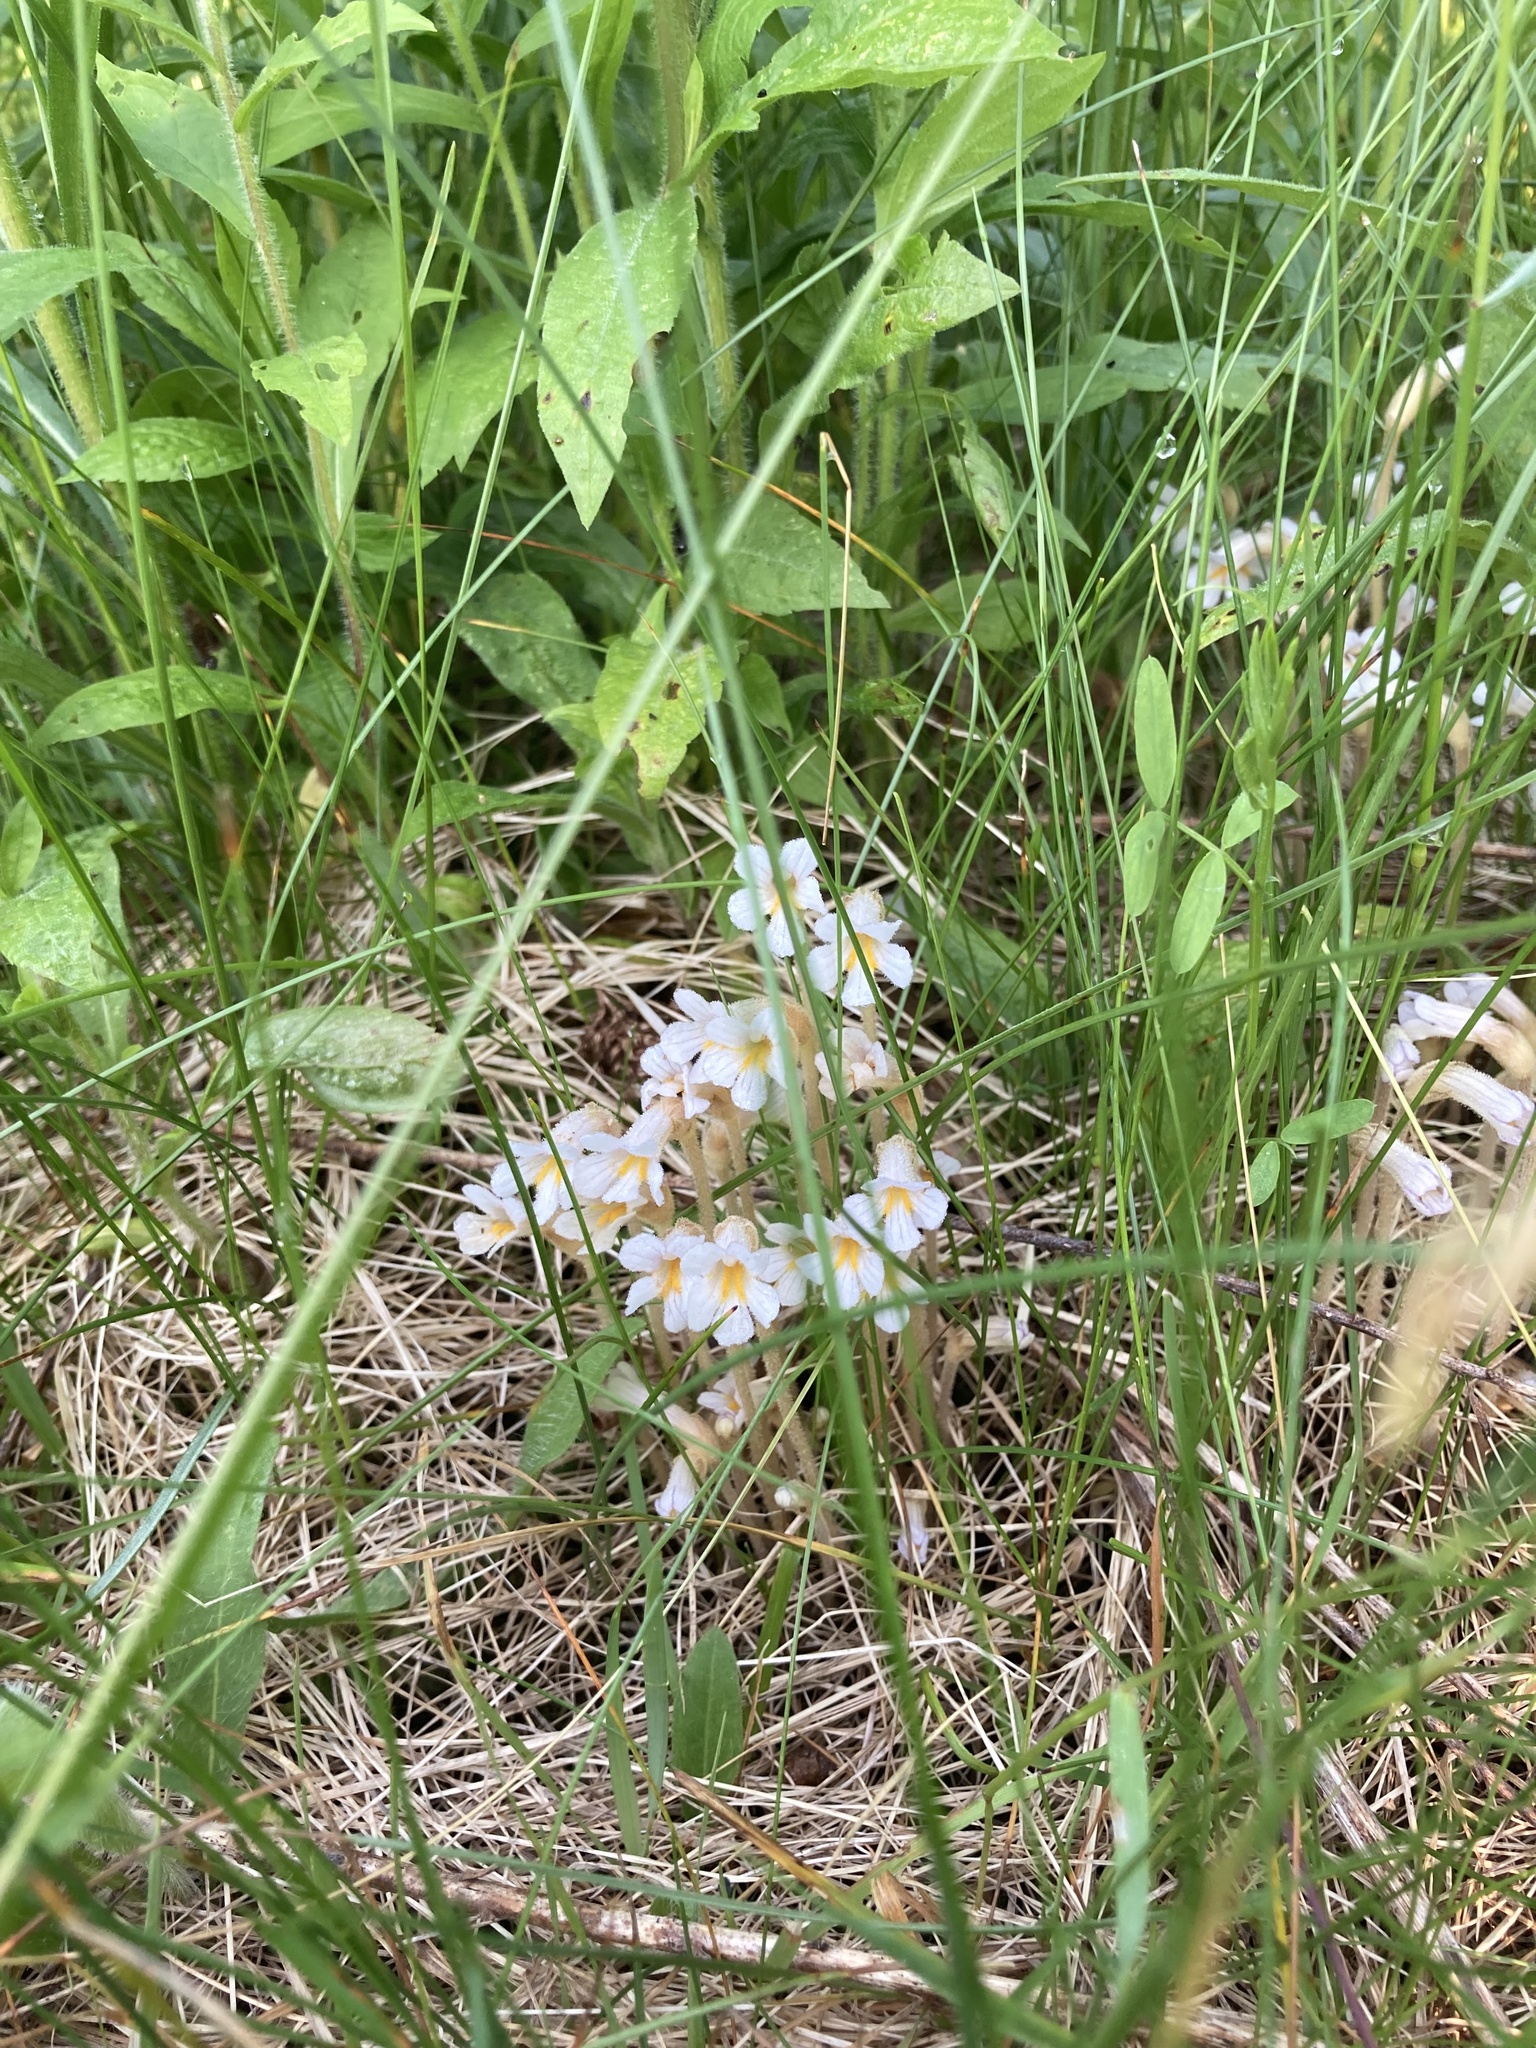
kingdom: Plantae
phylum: Tracheophyta
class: Magnoliopsida
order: Lamiales
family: Orobanchaceae
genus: Aphyllon
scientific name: Aphyllon uniflorum
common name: One-flowered broomrape
